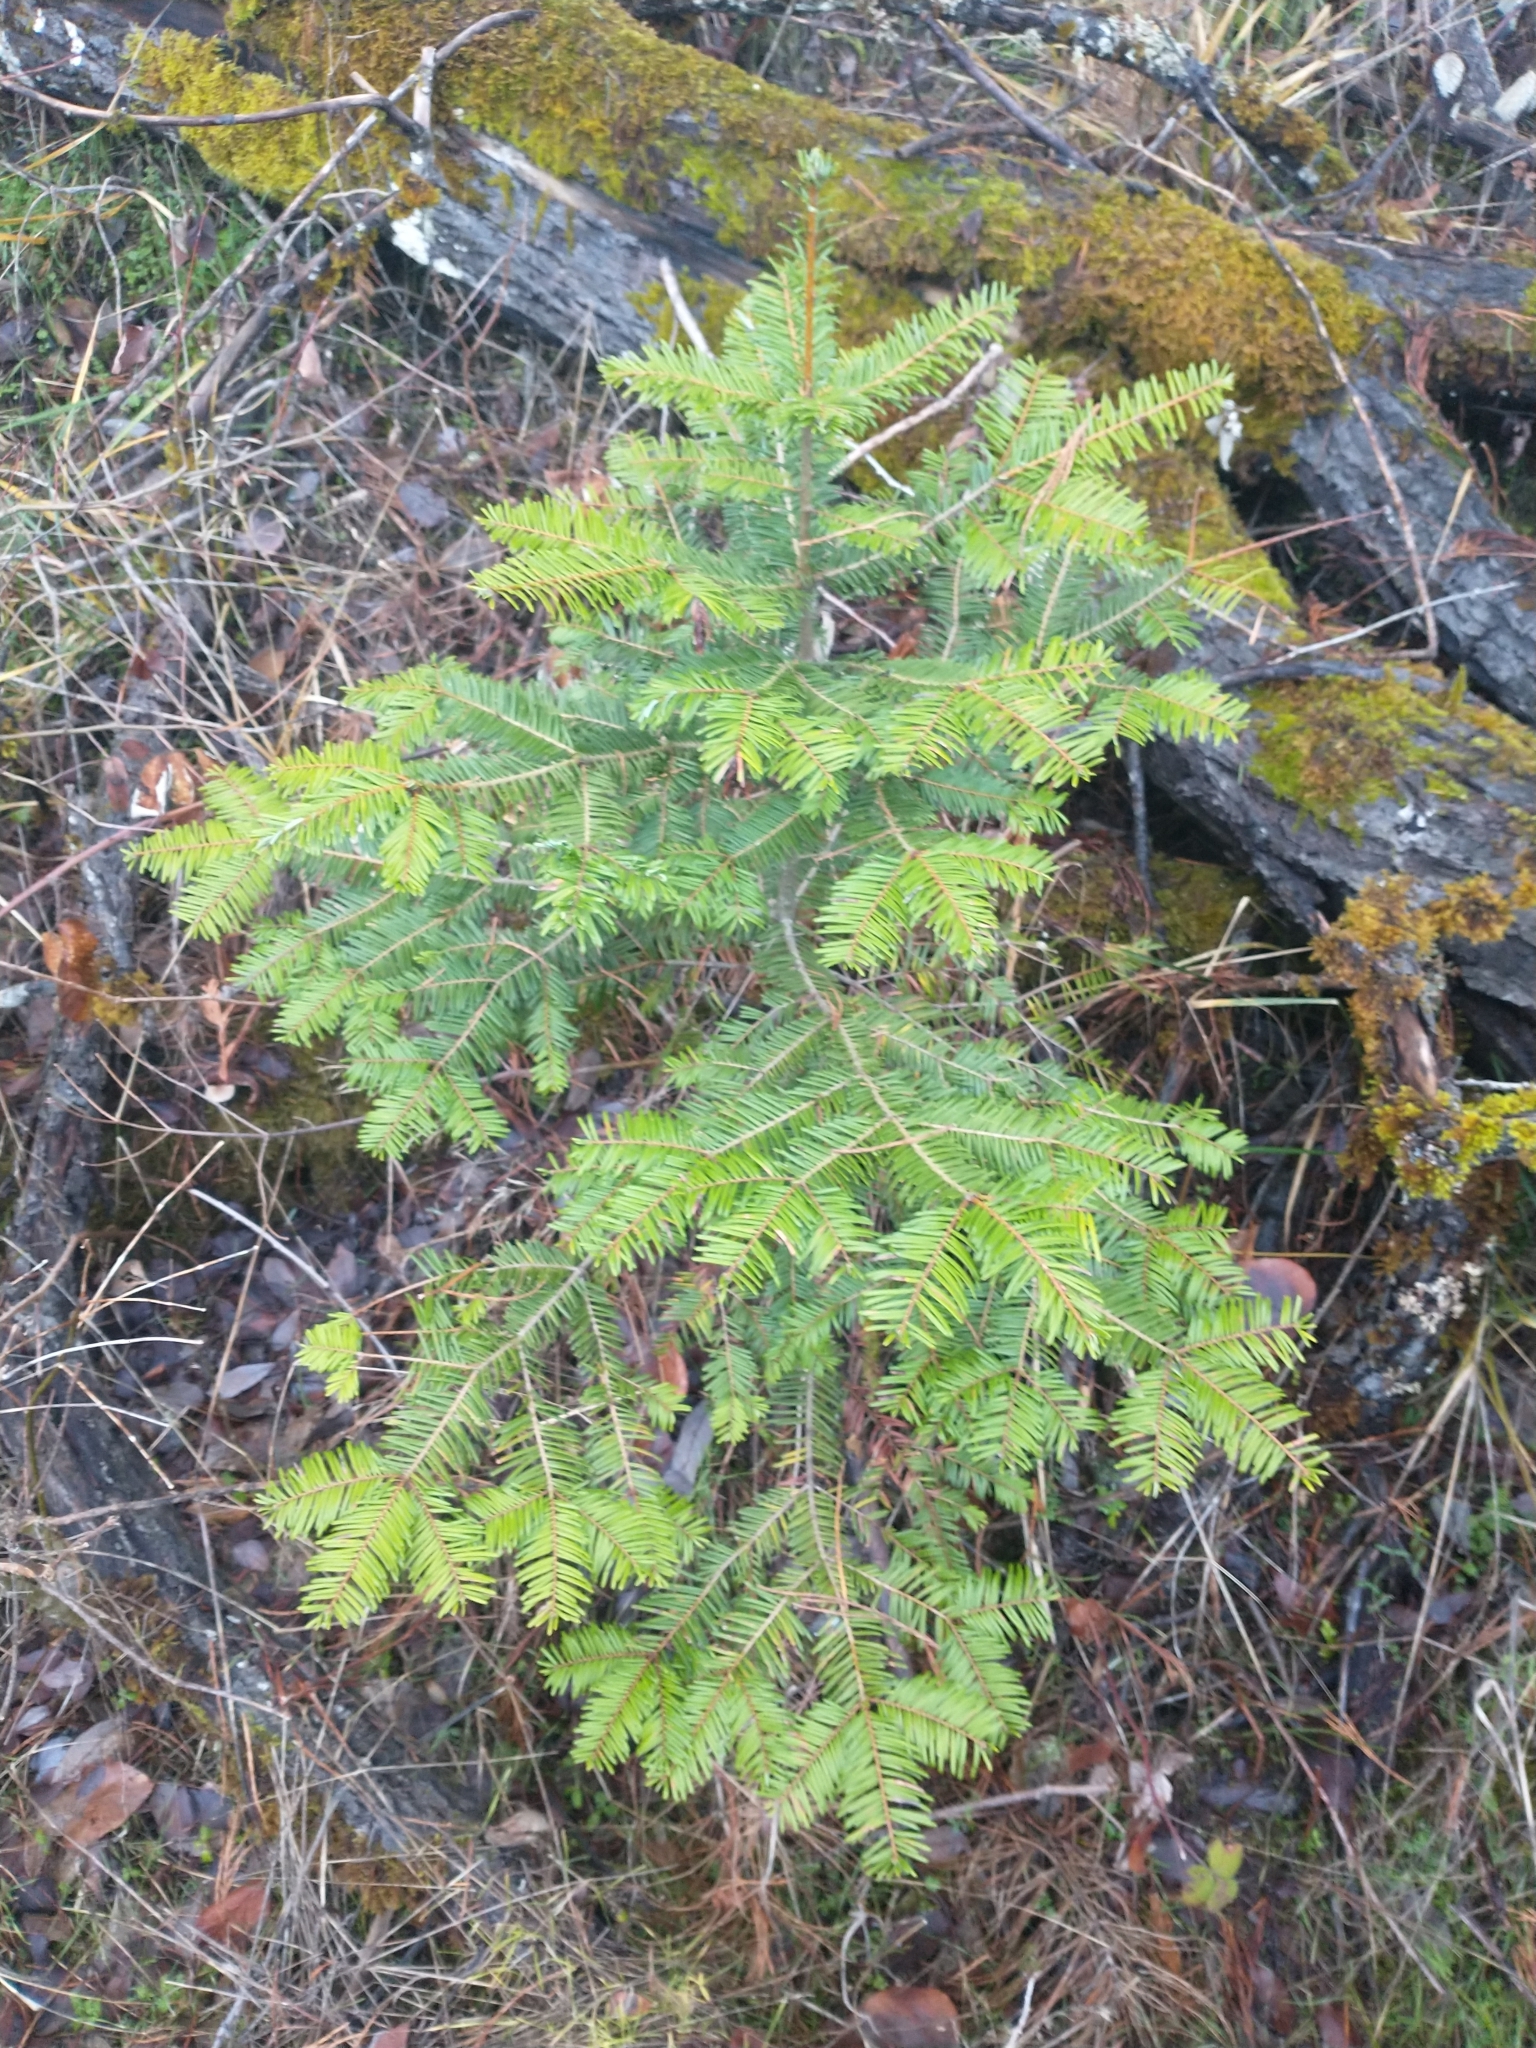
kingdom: Plantae
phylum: Tracheophyta
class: Pinopsida
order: Pinales
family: Pinaceae
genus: Abies
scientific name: Abies grandis
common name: Giant fir
